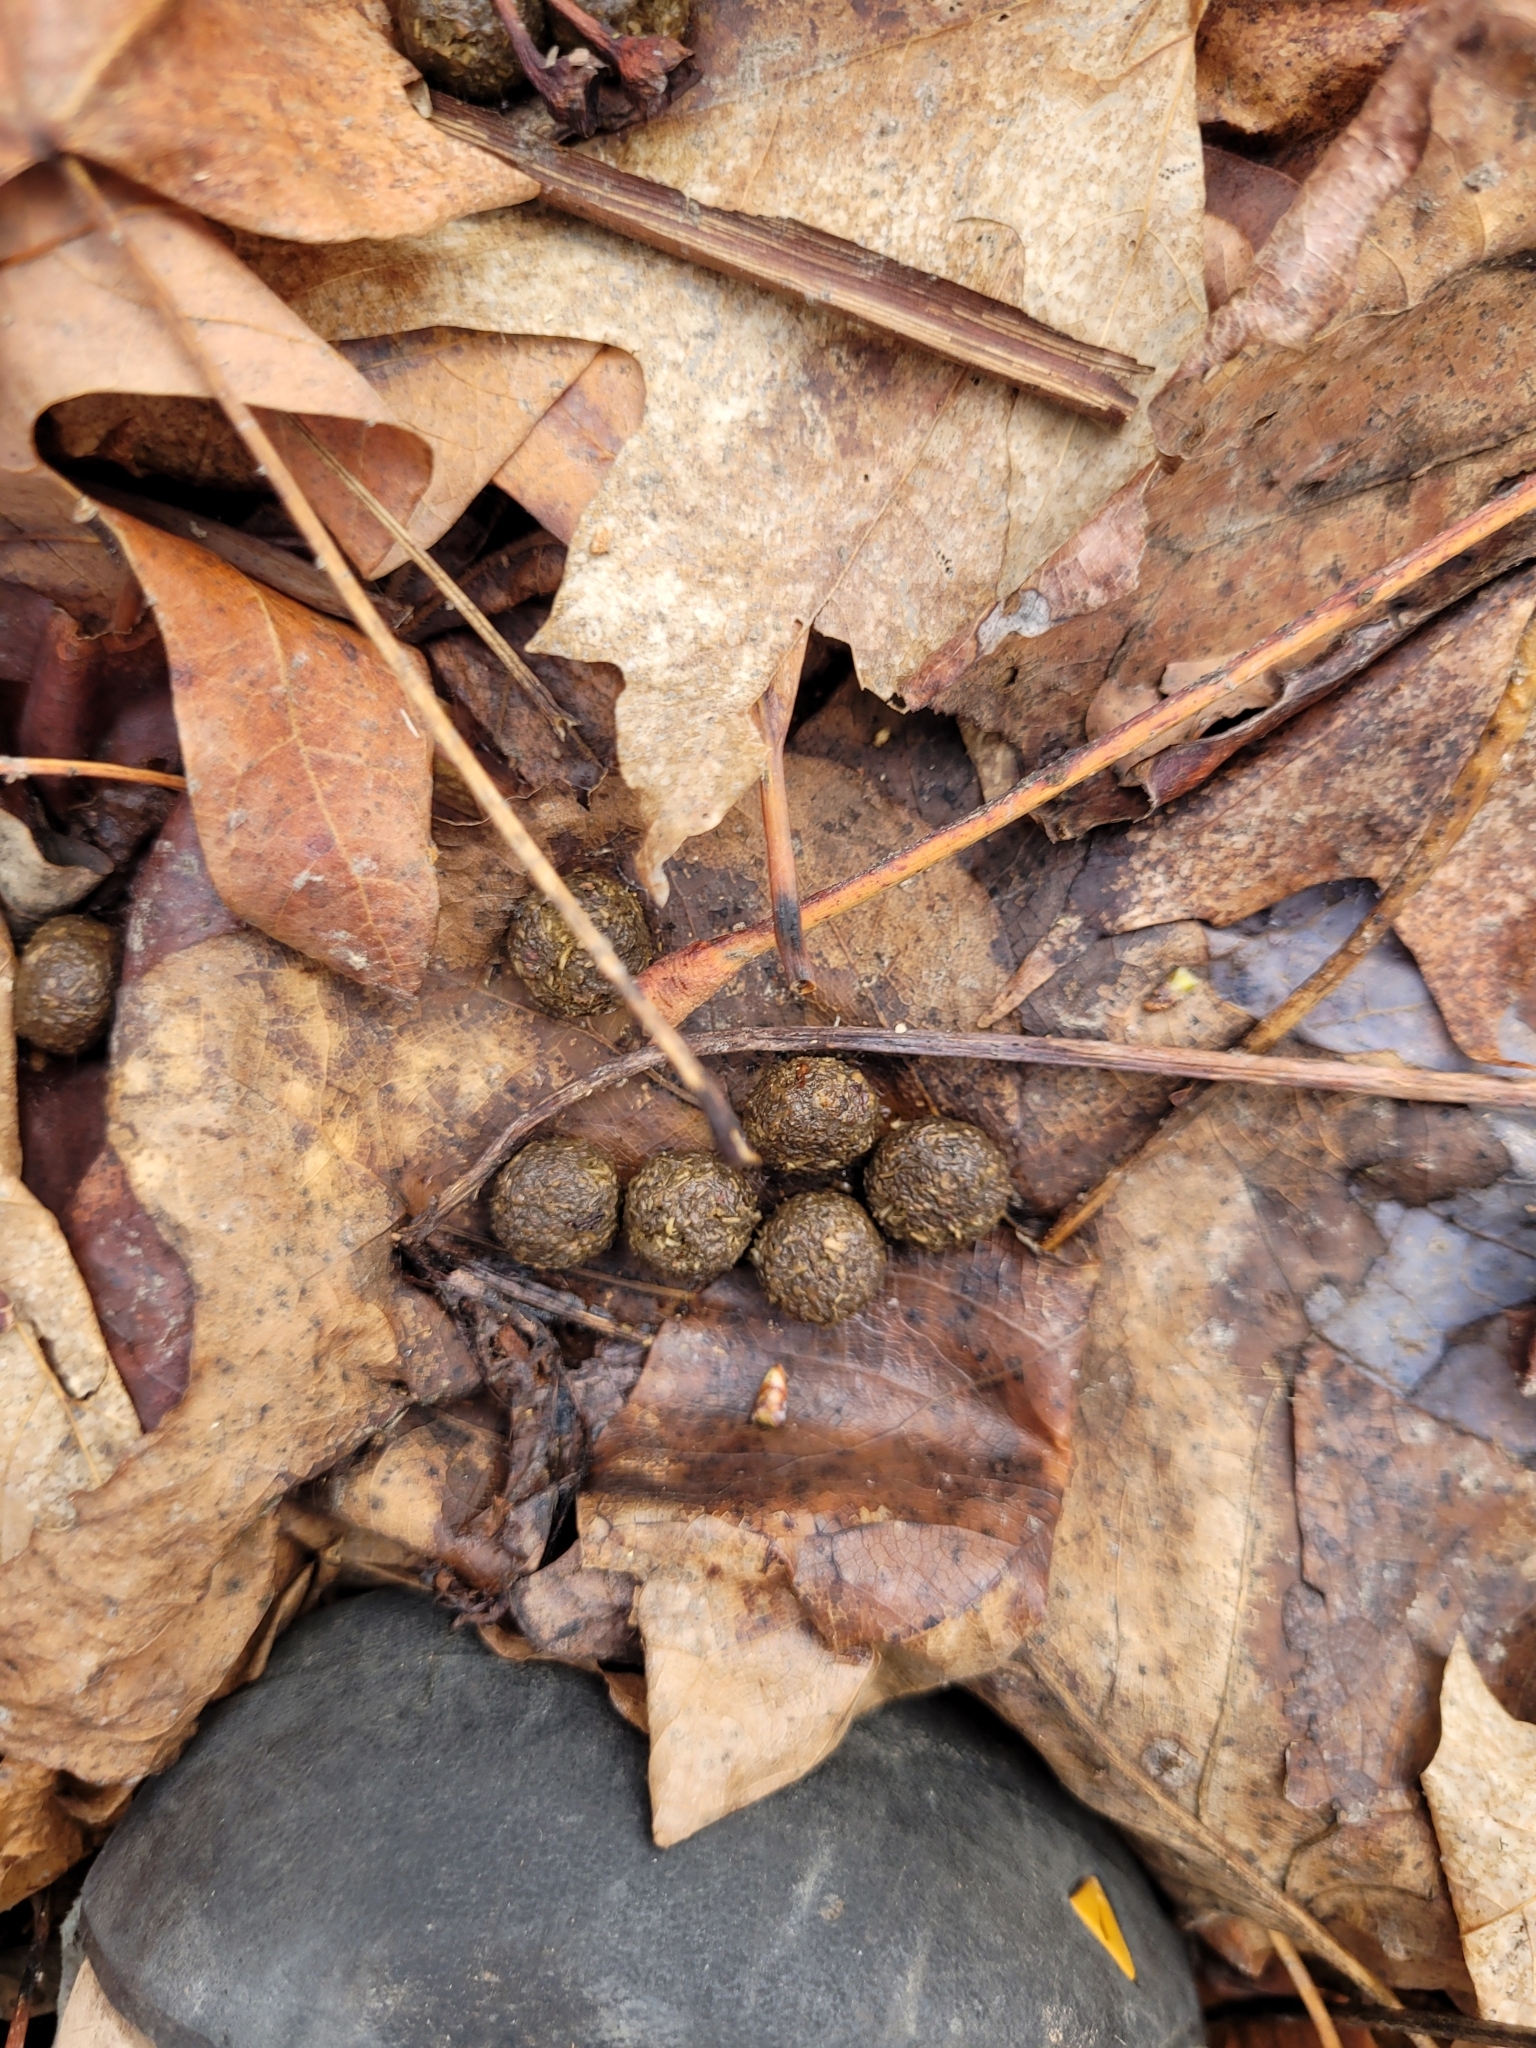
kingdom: Animalia
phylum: Chordata
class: Mammalia
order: Lagomorpha
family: Leporidae
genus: Sylvilagus
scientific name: Sylvilagus floridanus
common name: Eastern cottontail
